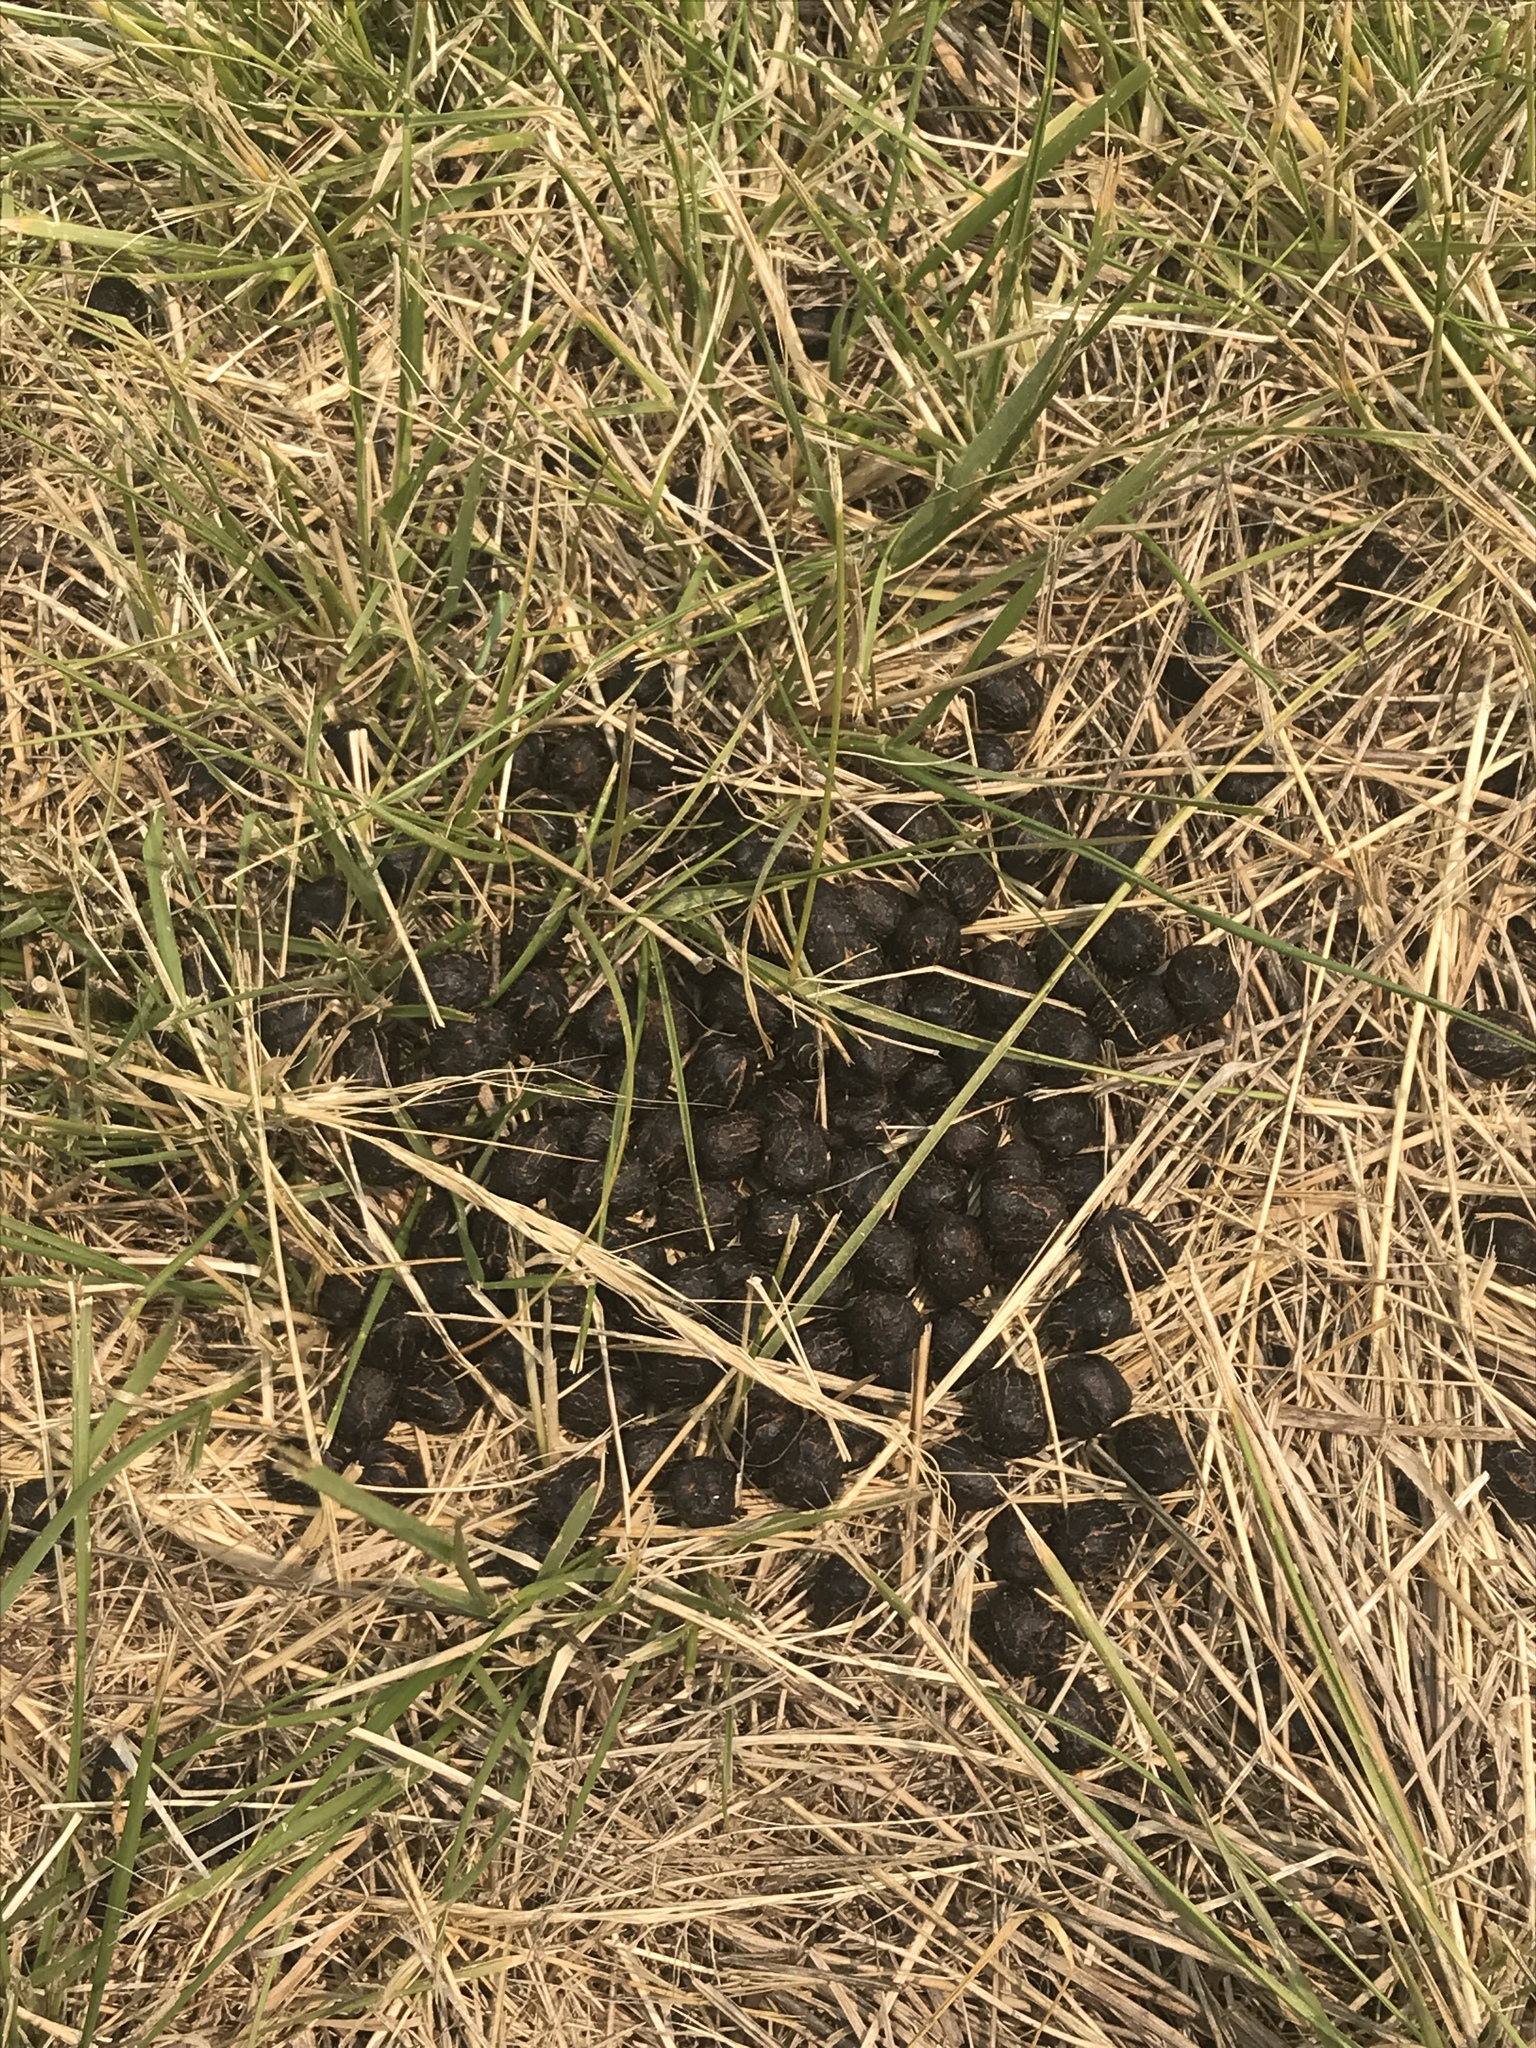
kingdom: Animalia
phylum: Chordata
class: Mammalia
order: Artiodactyla
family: Cervidae
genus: Odocoileus
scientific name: Odocoileus hemionus
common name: Mule deer
